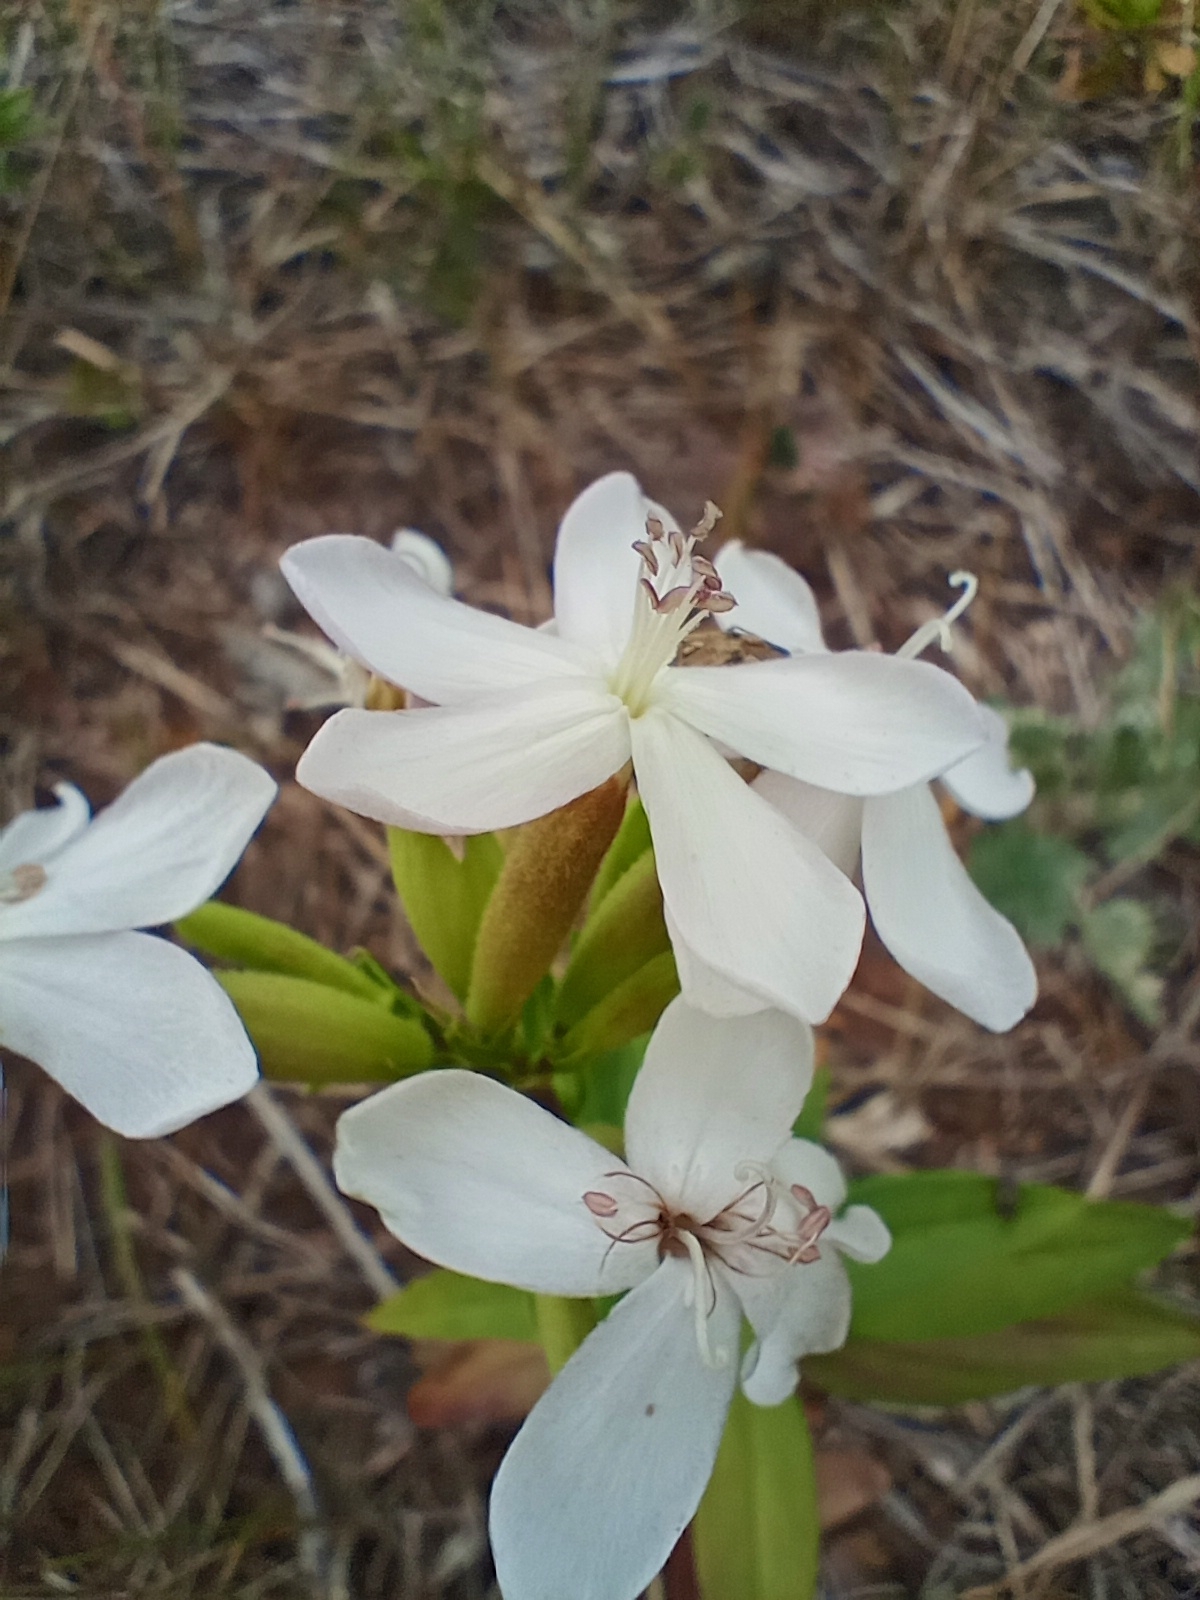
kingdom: Plantae
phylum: Tracheophyta
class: Magnoliopsida
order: Caryophyllales
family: Caryophyllaceae
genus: Saponaria
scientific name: Saponaria officinalis
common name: Soapwort
